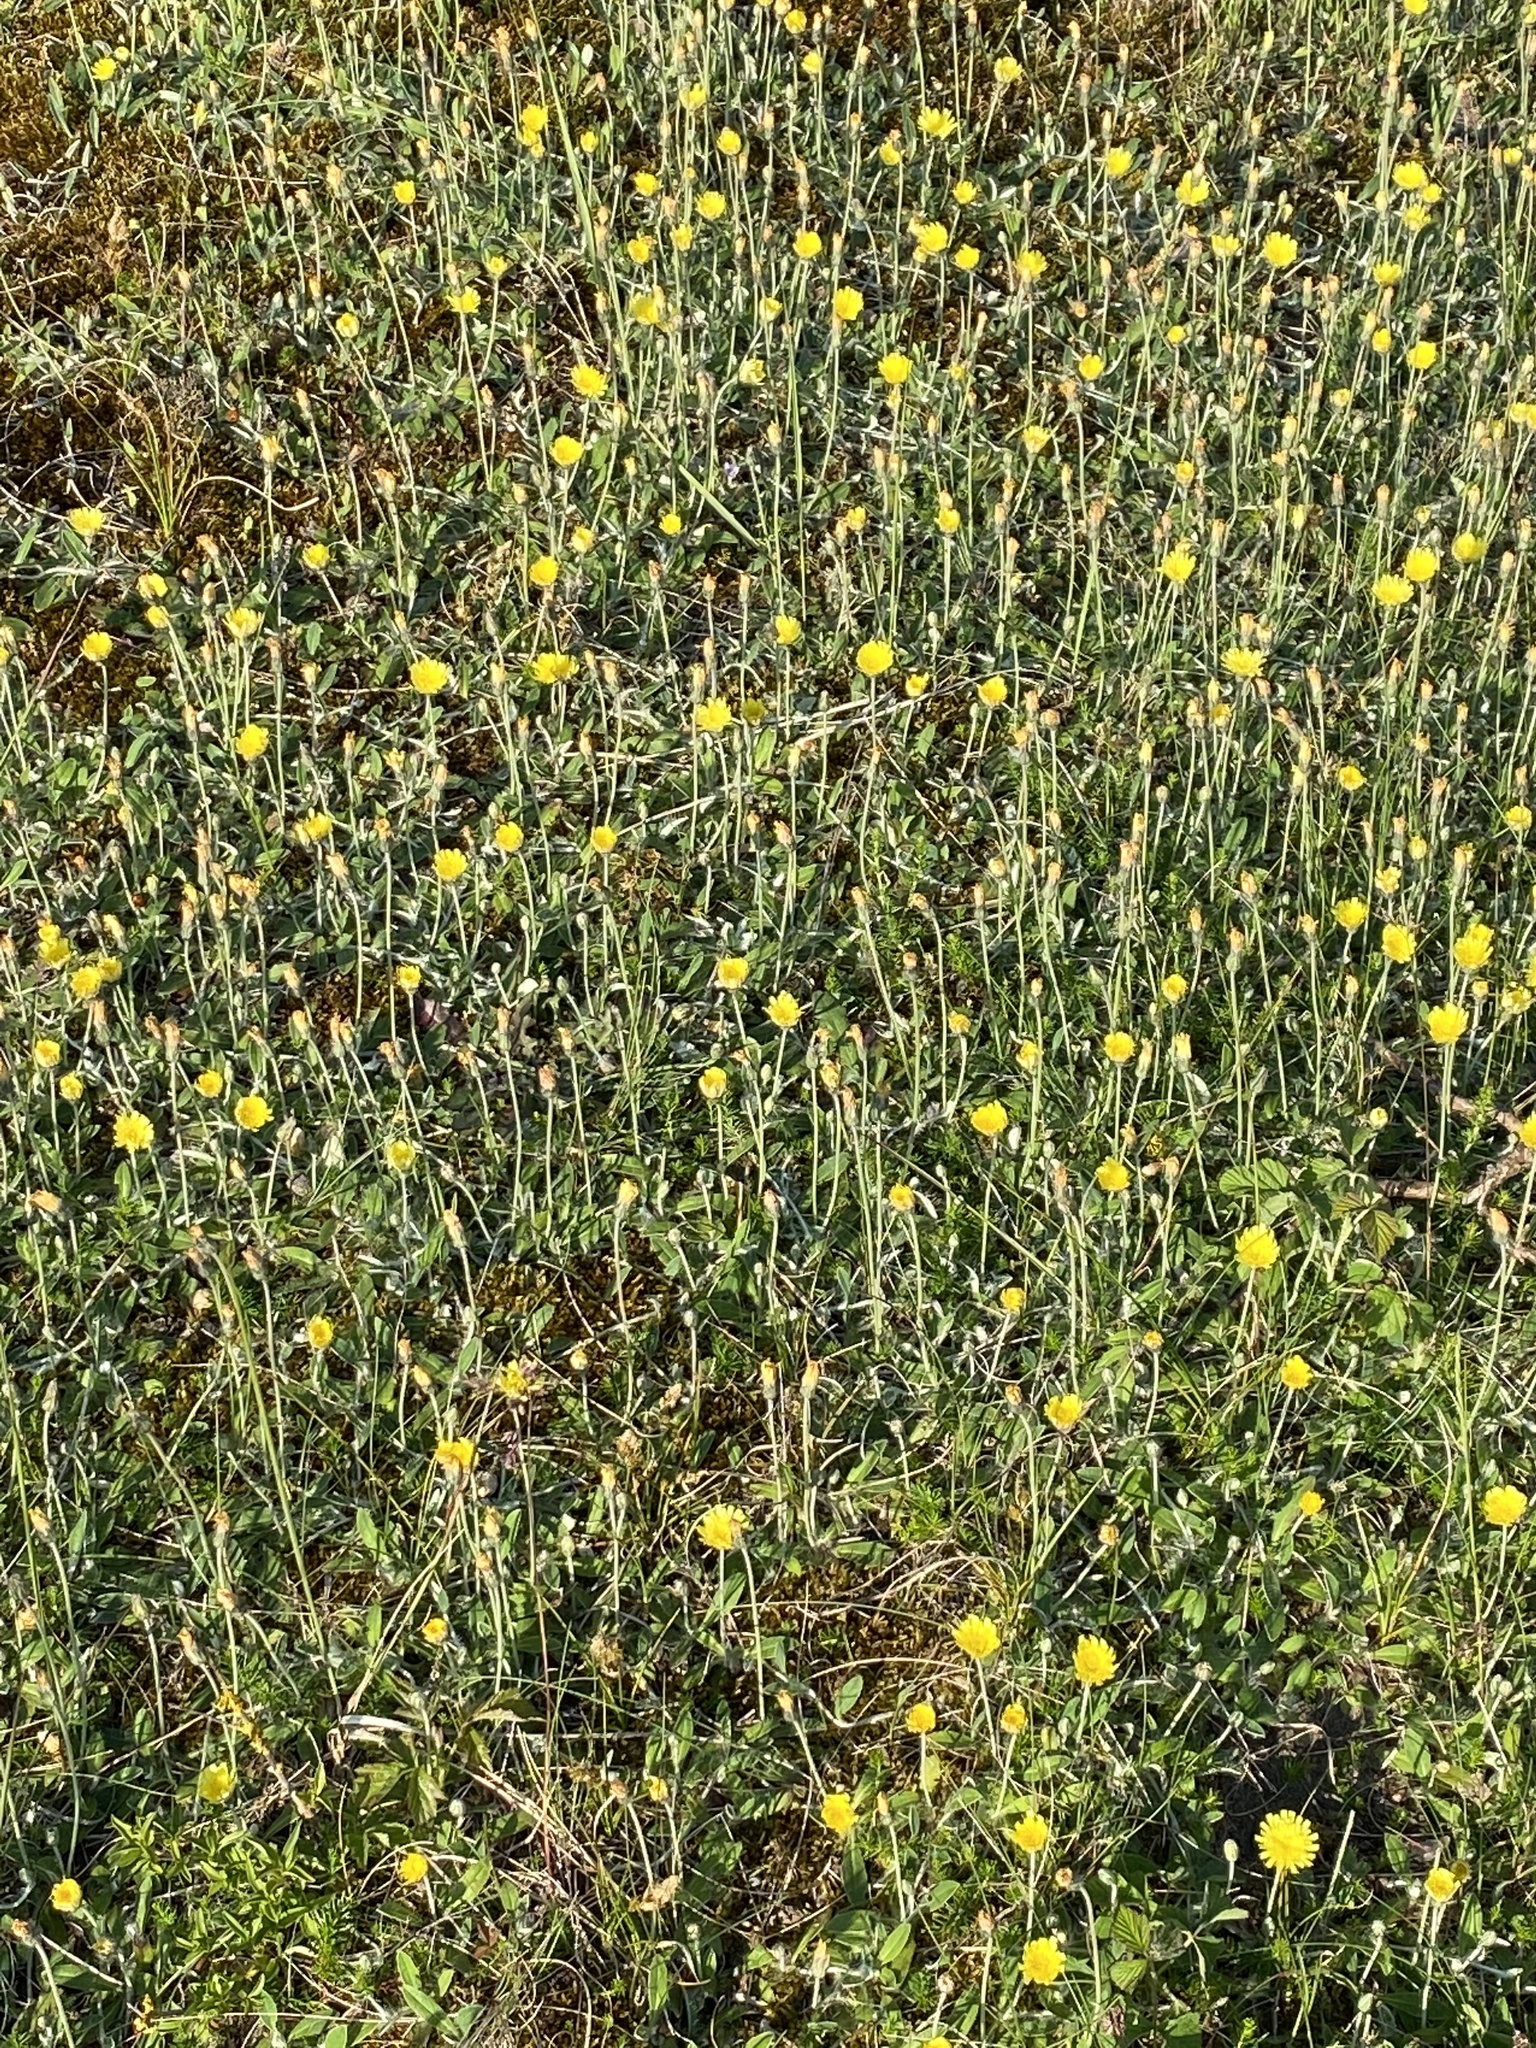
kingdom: Plantae
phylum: Tracheophyta
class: Magnoliopsida
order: Asterales
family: Asteraceae
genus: Pilosella
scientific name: Pilosella officinarum
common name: Mouse-ear hawkweed
